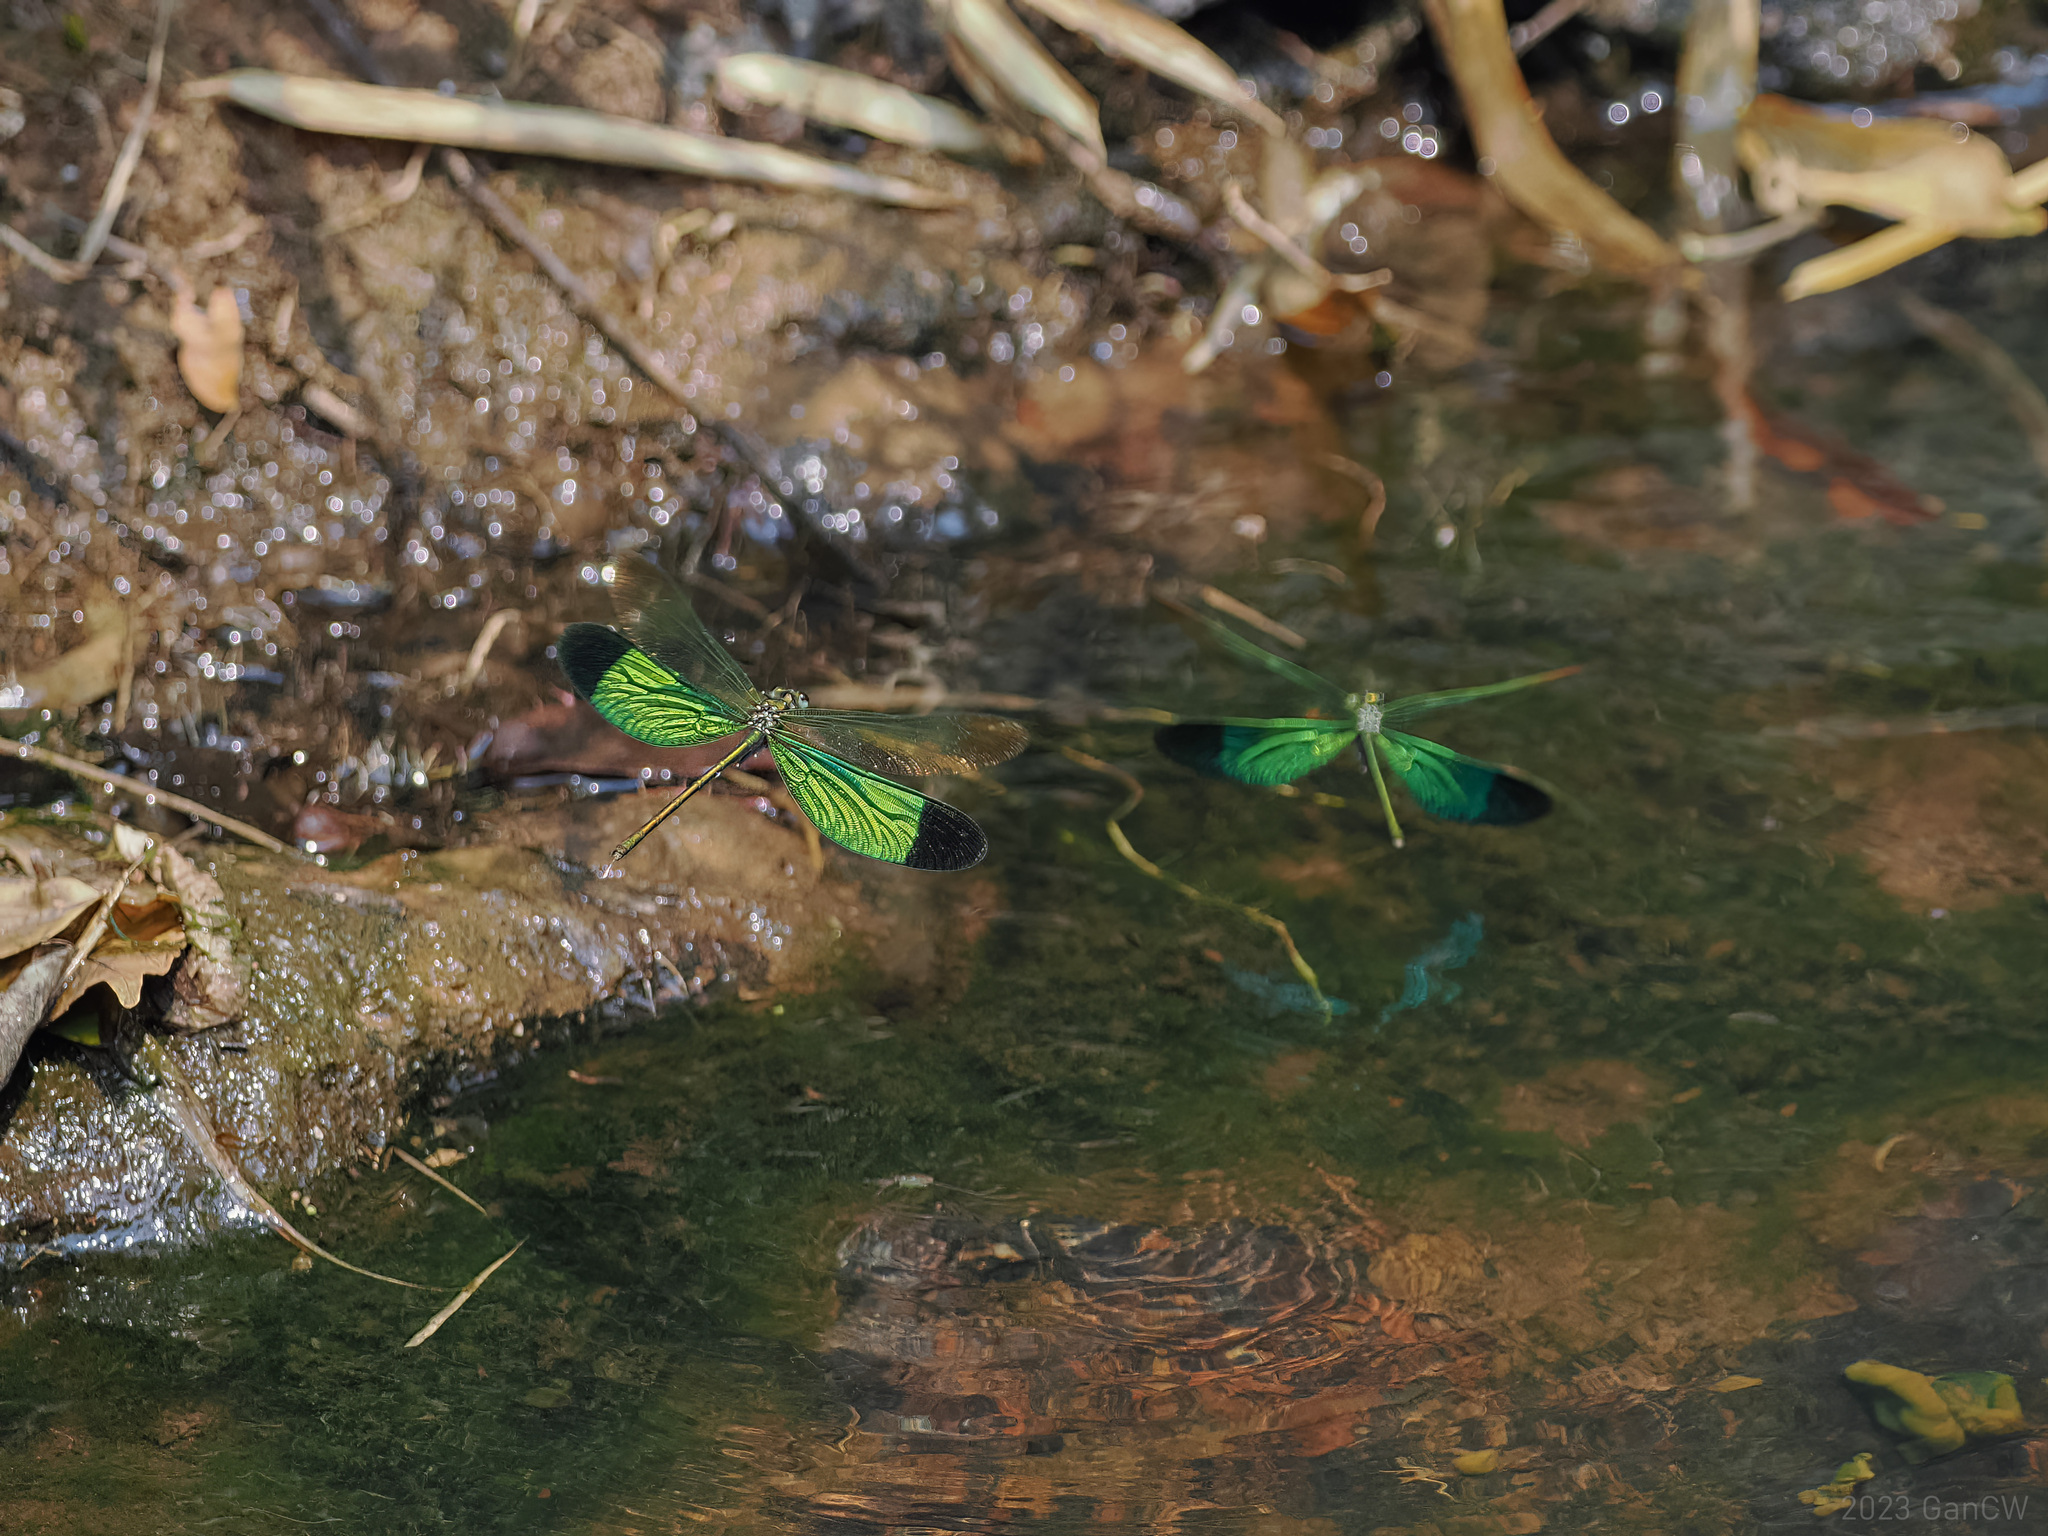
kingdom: Animalia
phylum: Arthropoda
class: Insecta
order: Odonata
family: Calopterygidae
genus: Neurobasis
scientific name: Neurobasis chinensis
